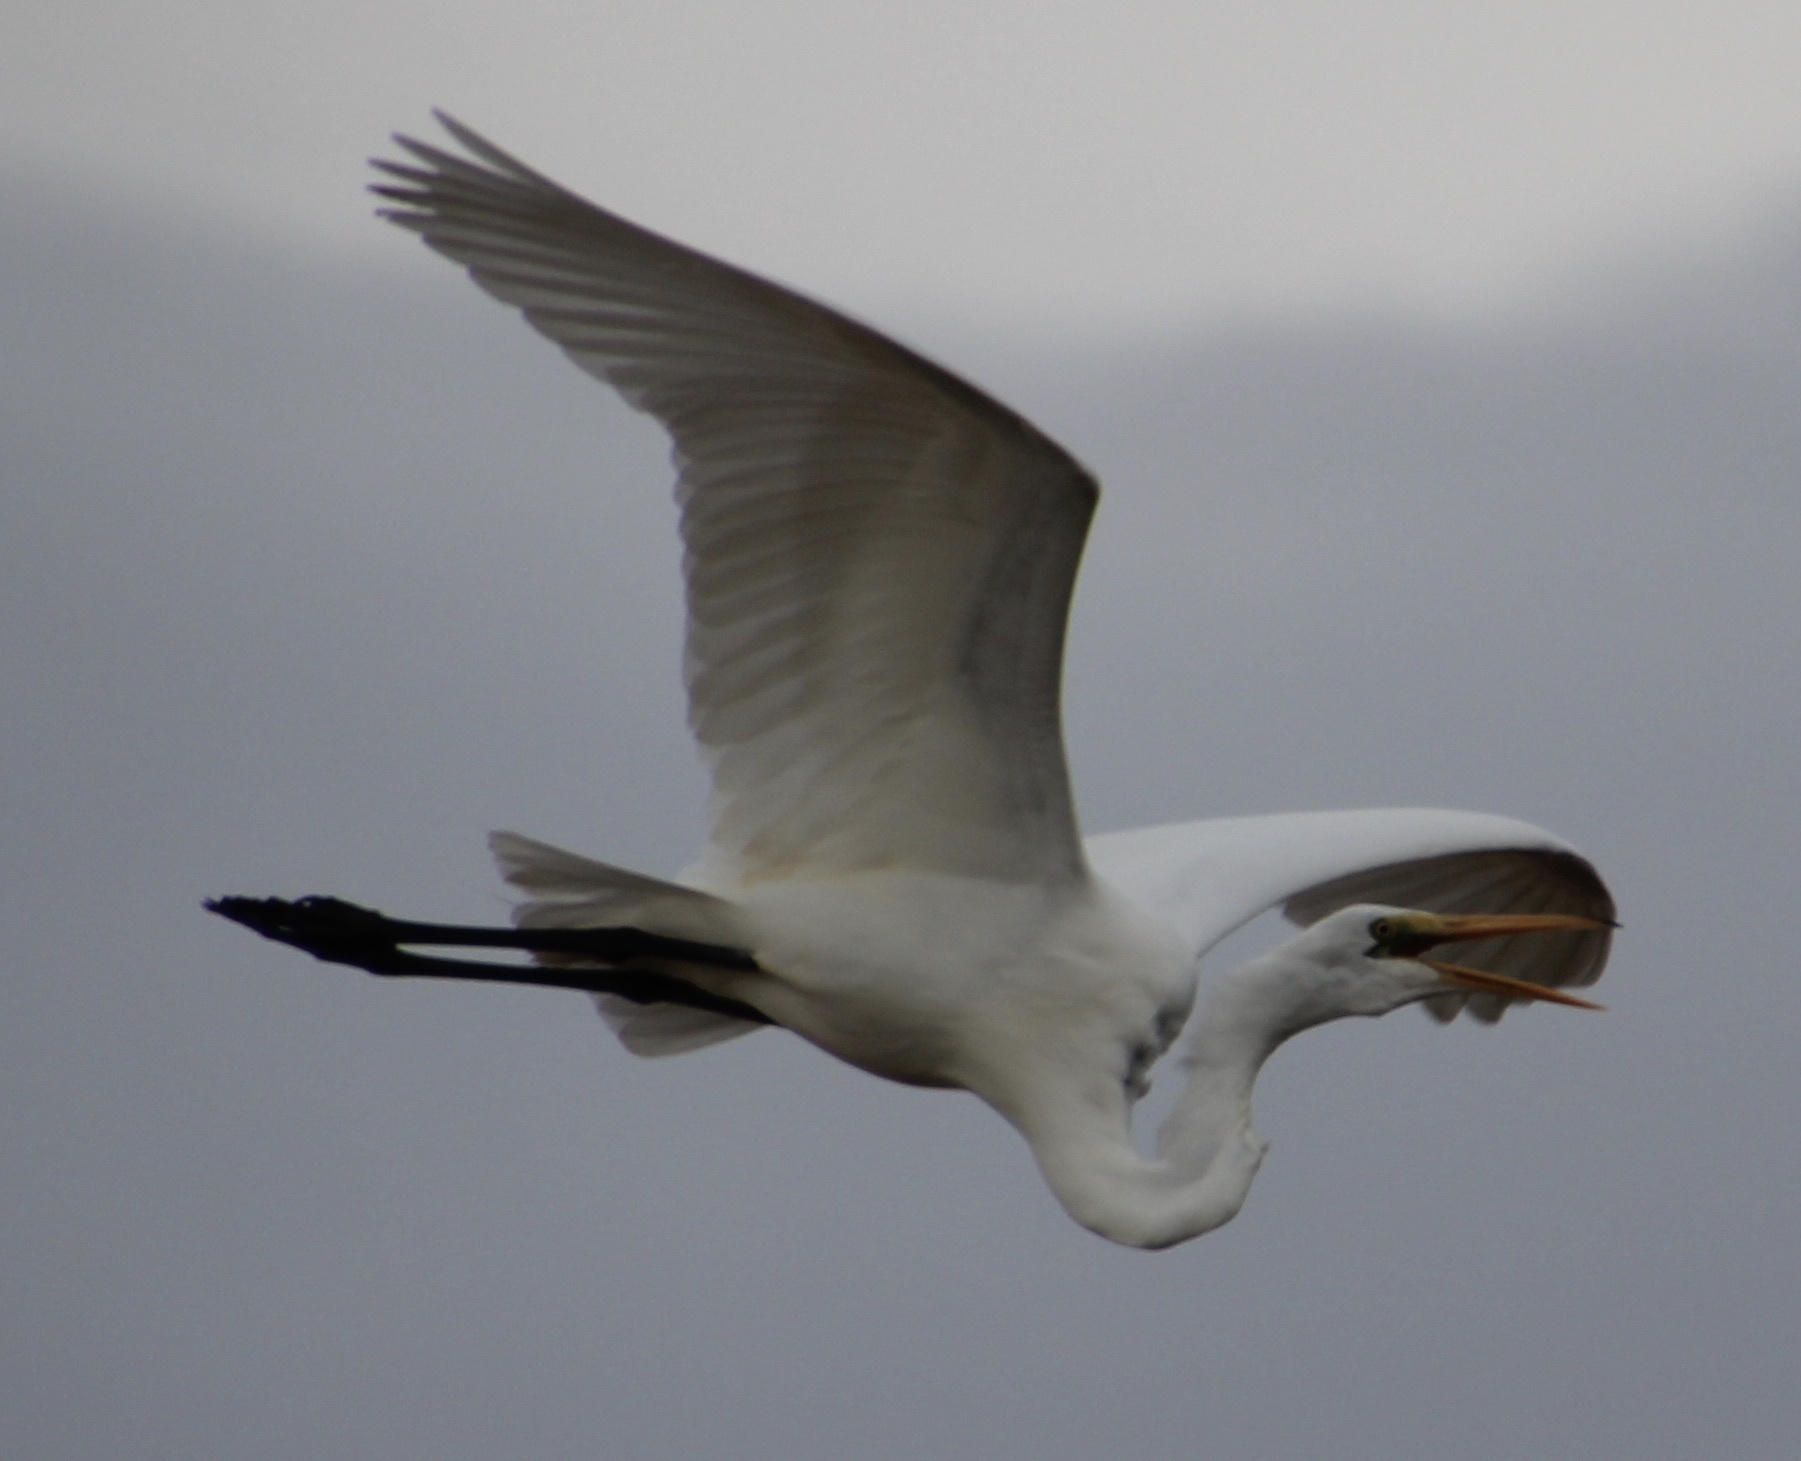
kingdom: Animalia
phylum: Chordata
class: Aves
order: Pelecaniformes
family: Ardeidae
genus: Ardea
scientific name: Ardea alba
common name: Great egret
